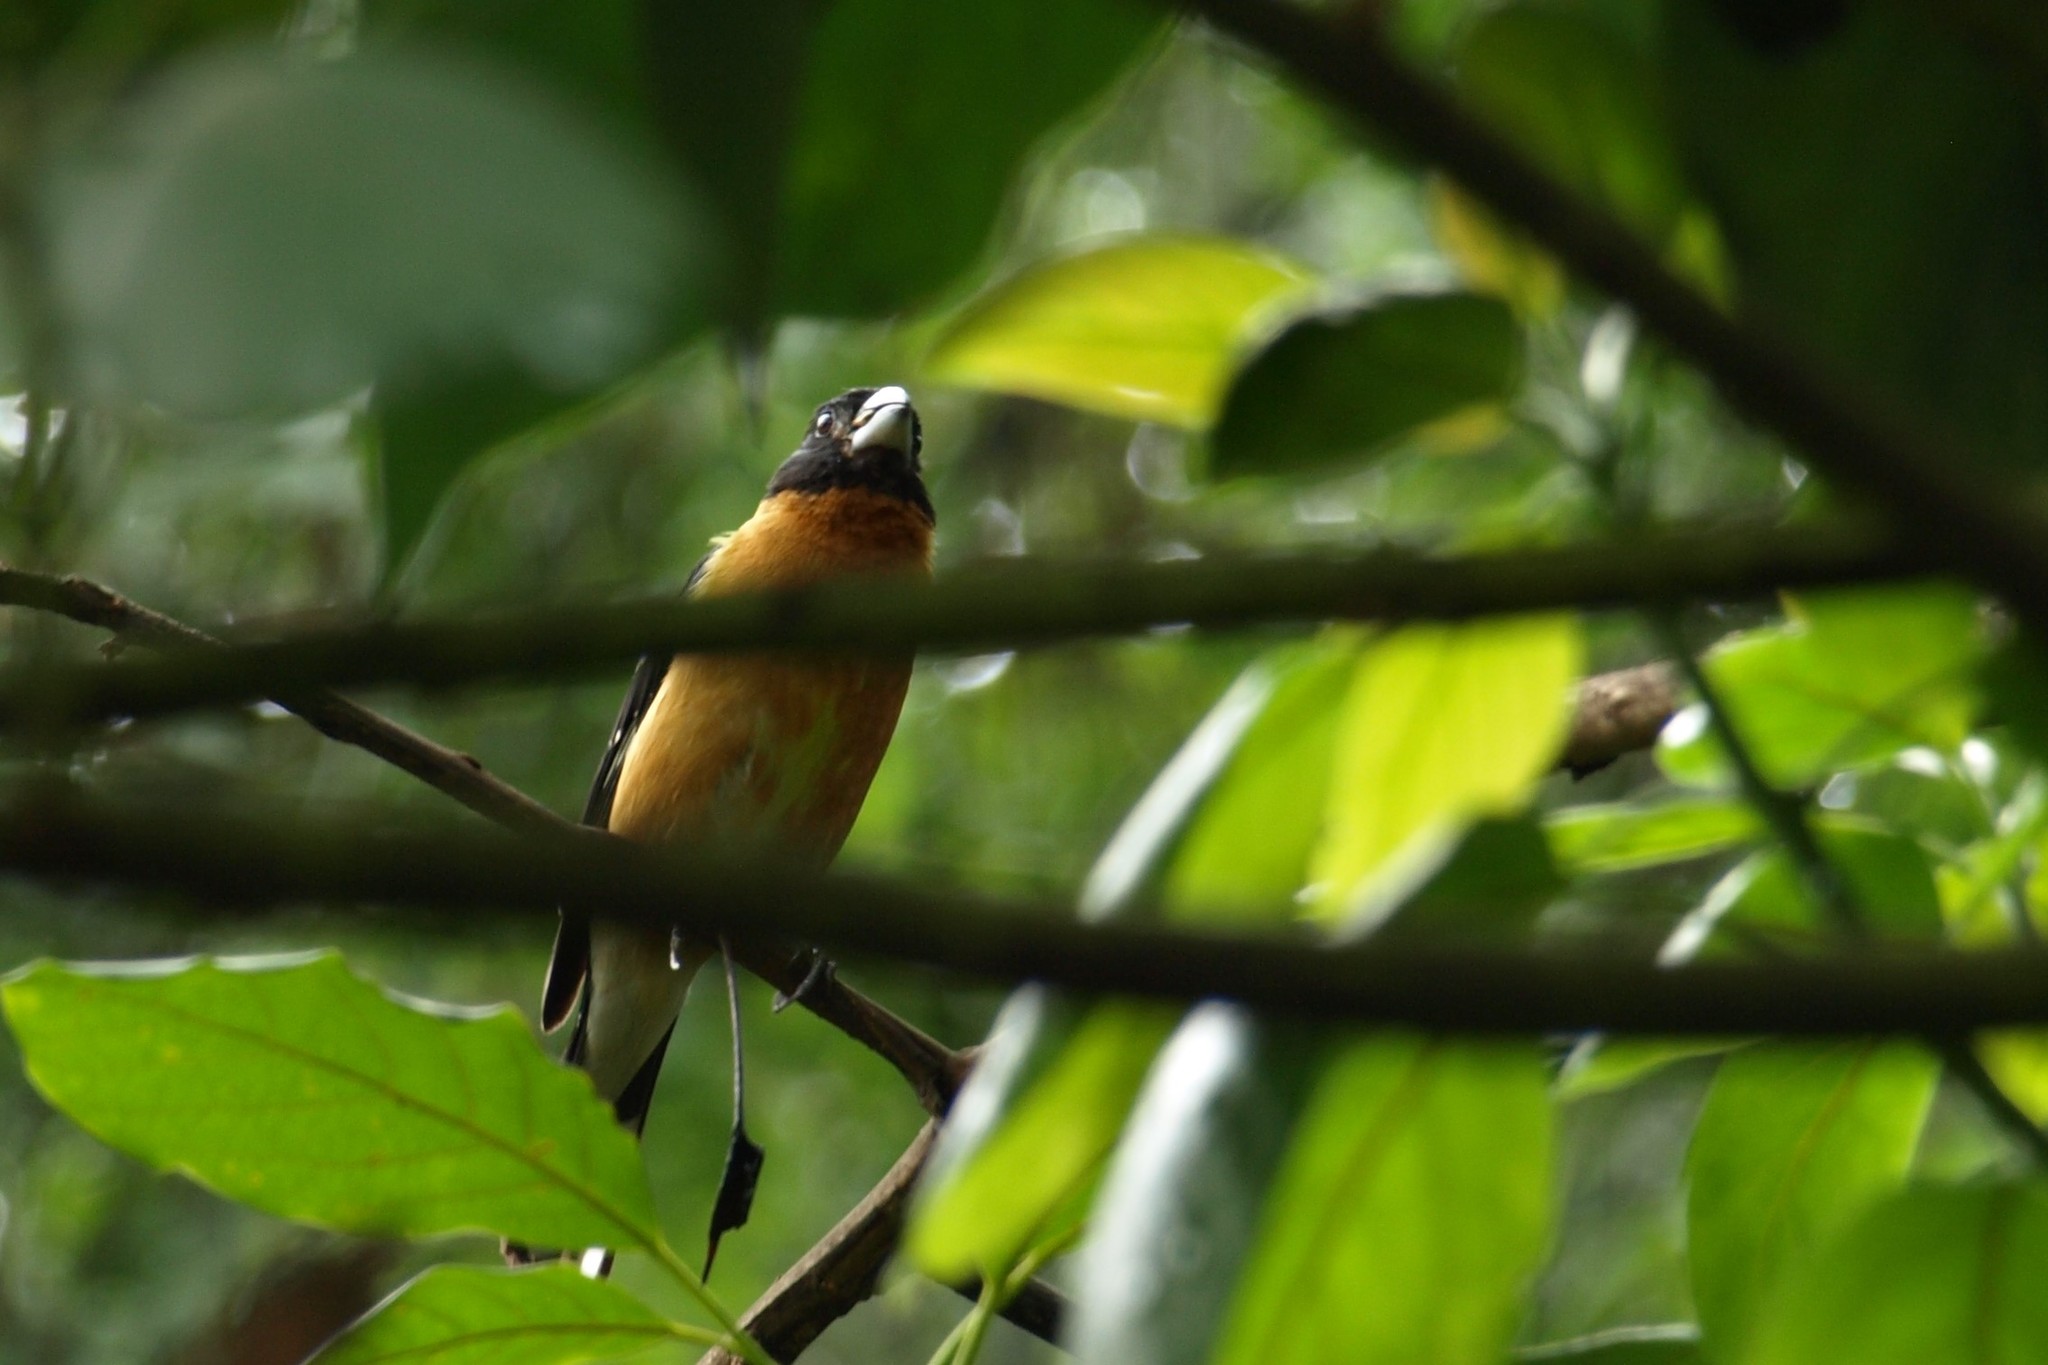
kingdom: Animalia
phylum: Chordata
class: Aves
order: Passeriformes
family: Cardinalidae
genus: Pheucticus
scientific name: Pheucticus melanocephalus
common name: Black-headed grosbeak
